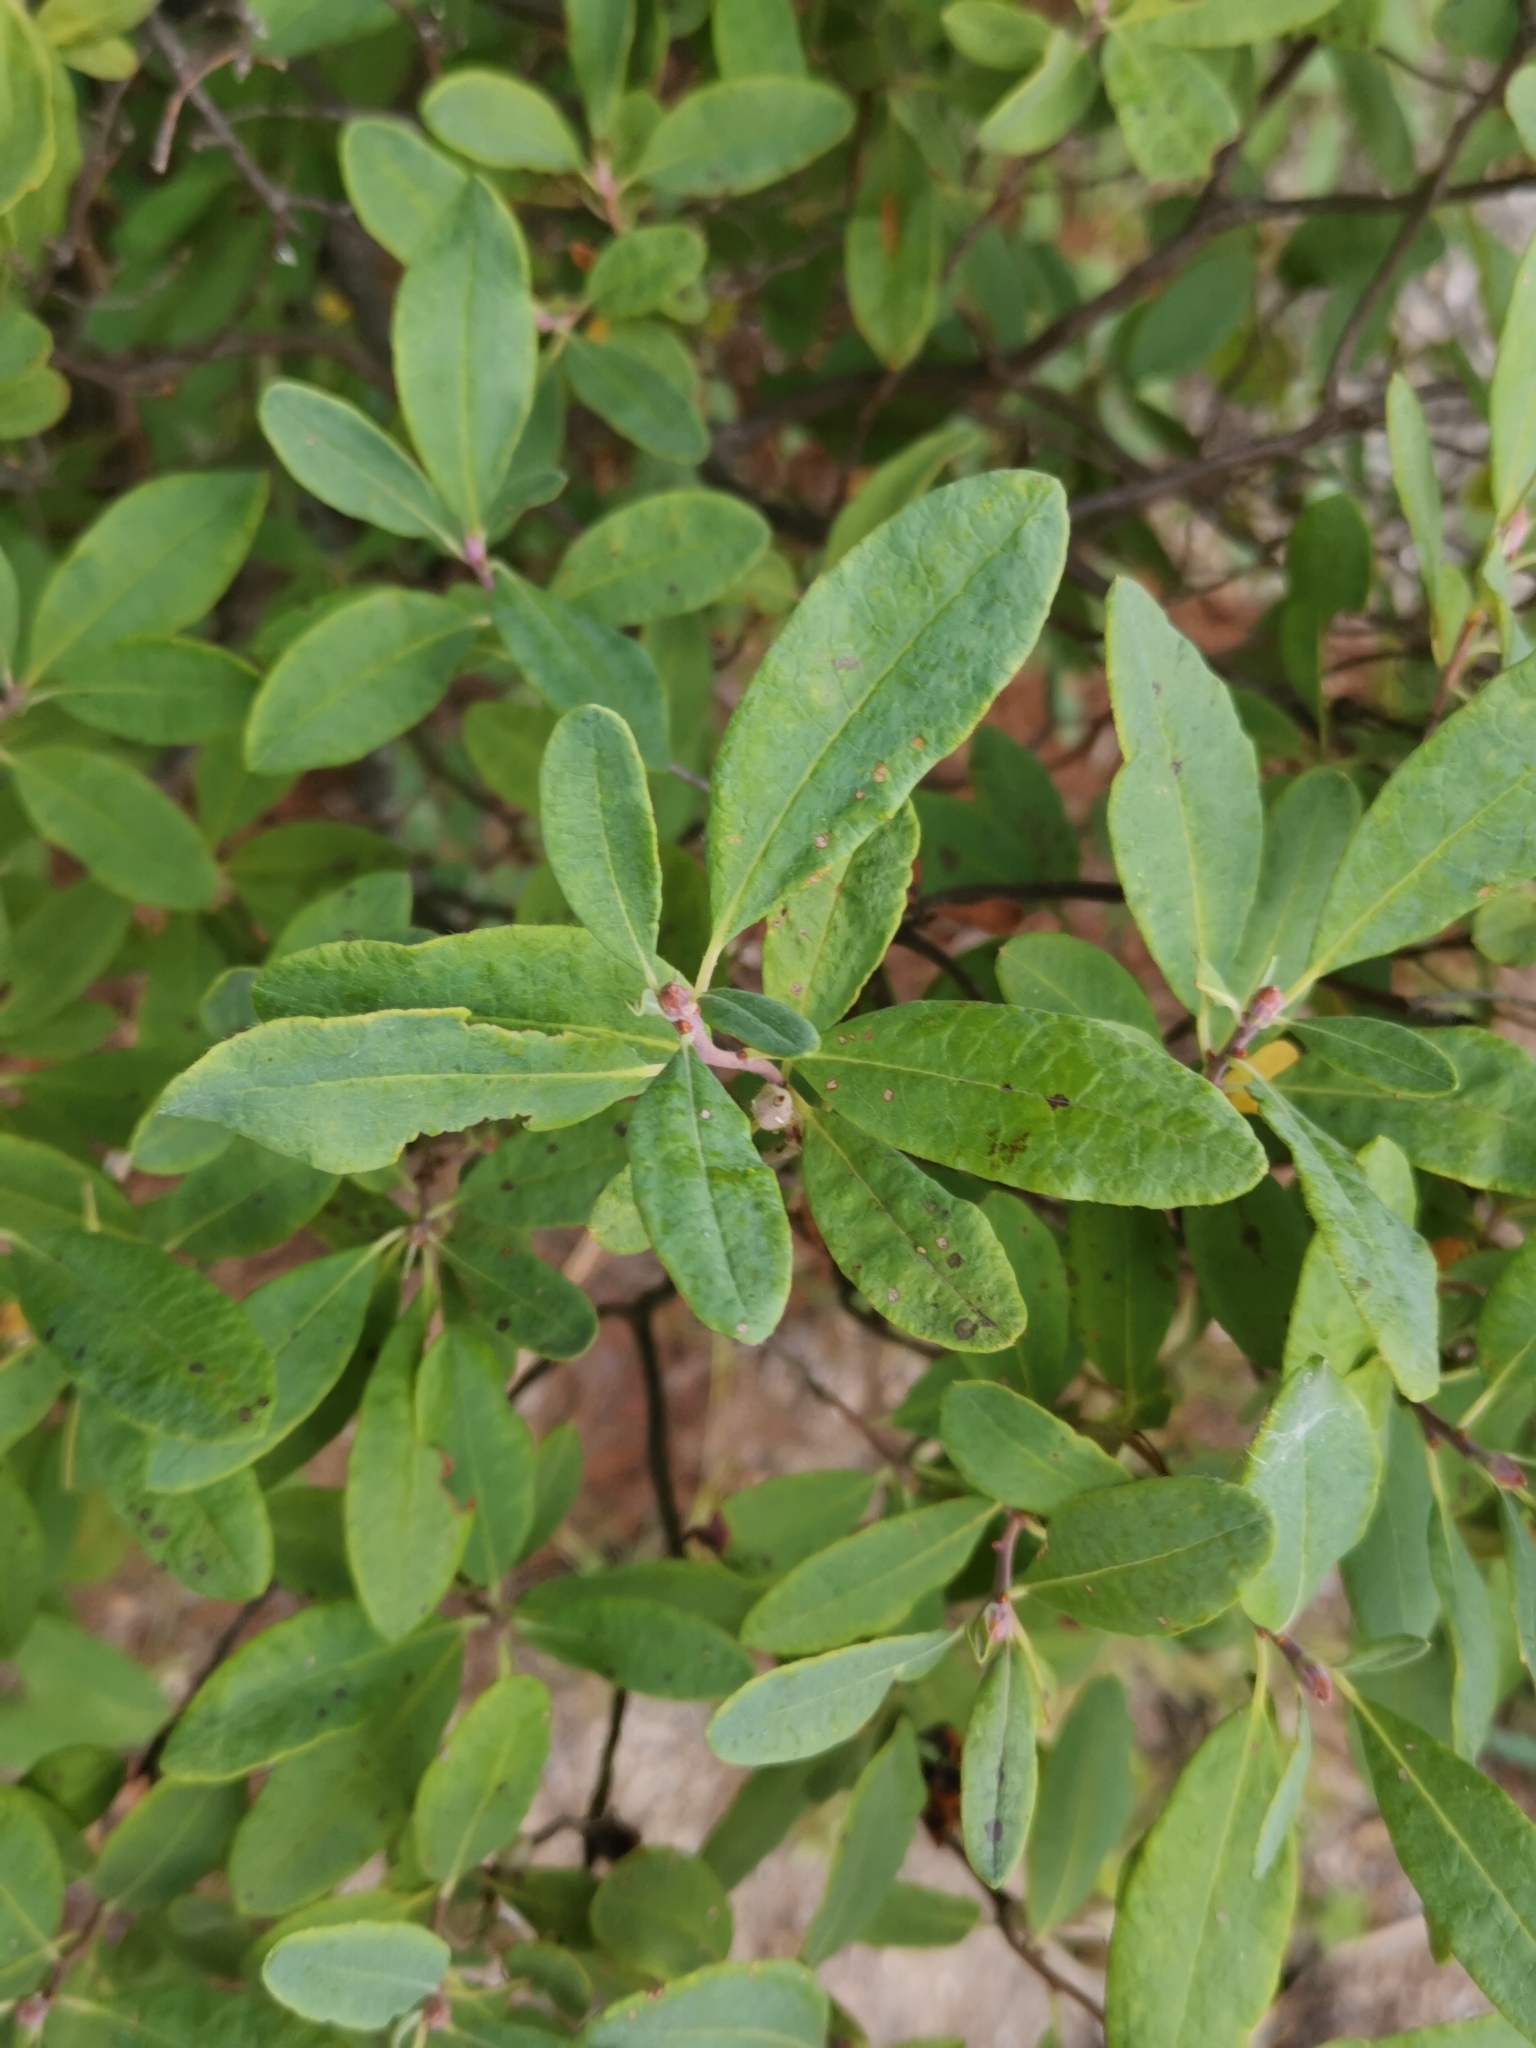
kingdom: Plantae
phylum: Tracheophyta
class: Magnoliopsida
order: Ericales
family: Ericaceae
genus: Rhododendron
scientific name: Rhododendron canadense
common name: Rhodora
